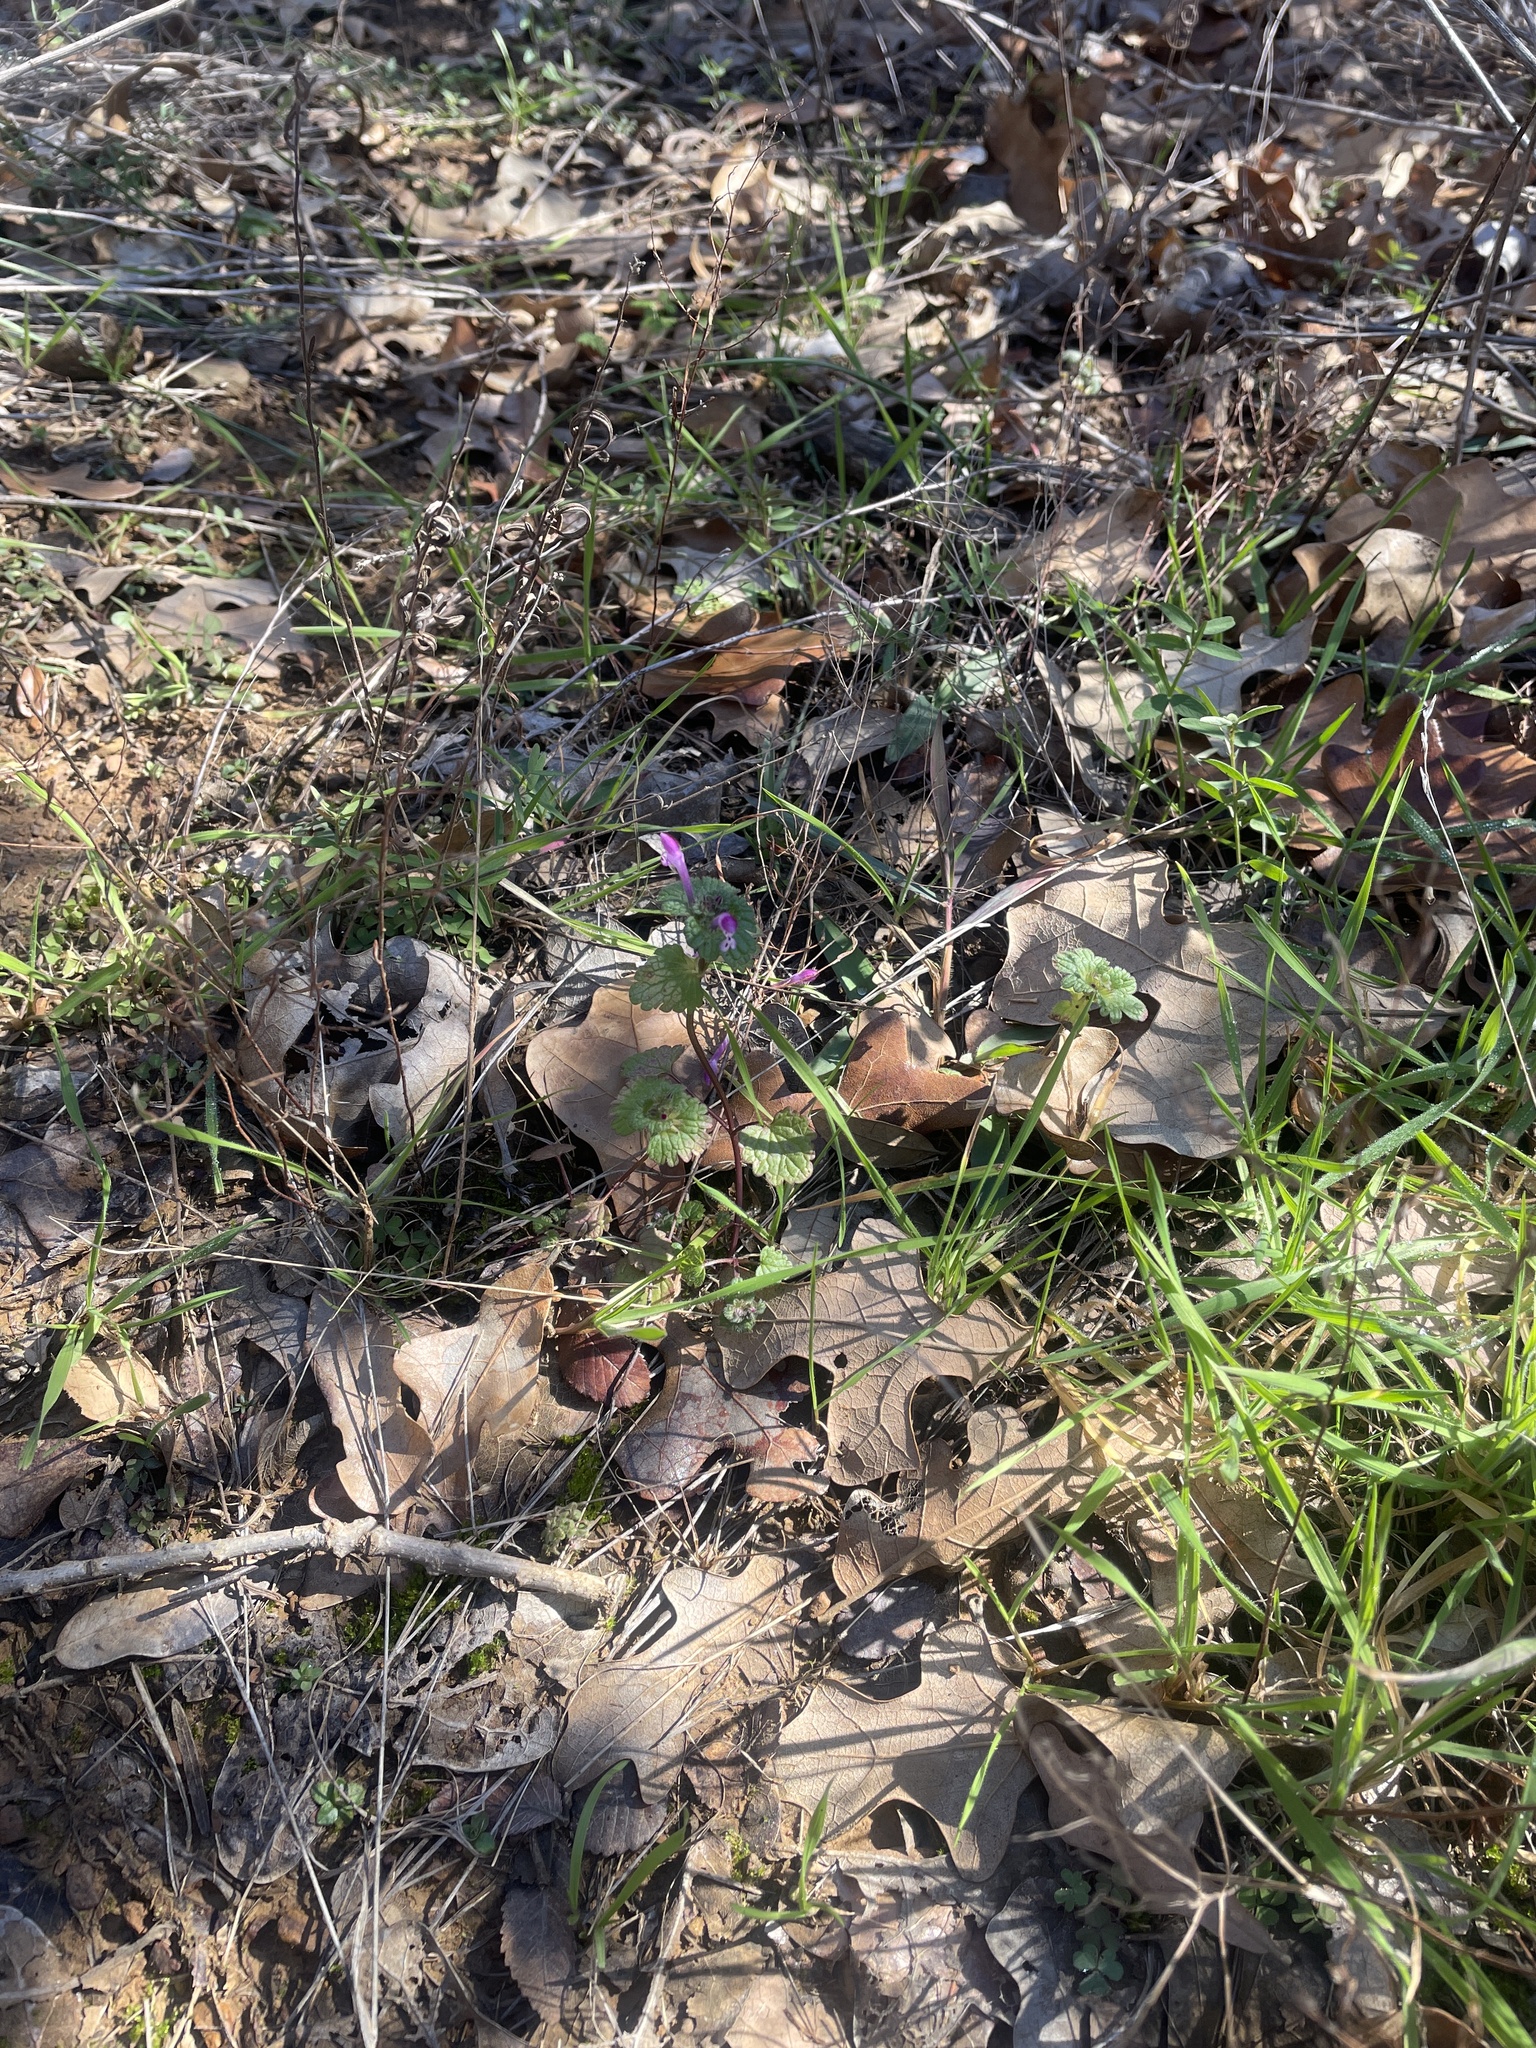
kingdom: Plantae
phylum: Tracheophyta
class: Magnoliopsida
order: Lamiales
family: Lamiaceae
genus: Lamium
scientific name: Lamium amplexicaule
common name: Henbit dead-nettle
